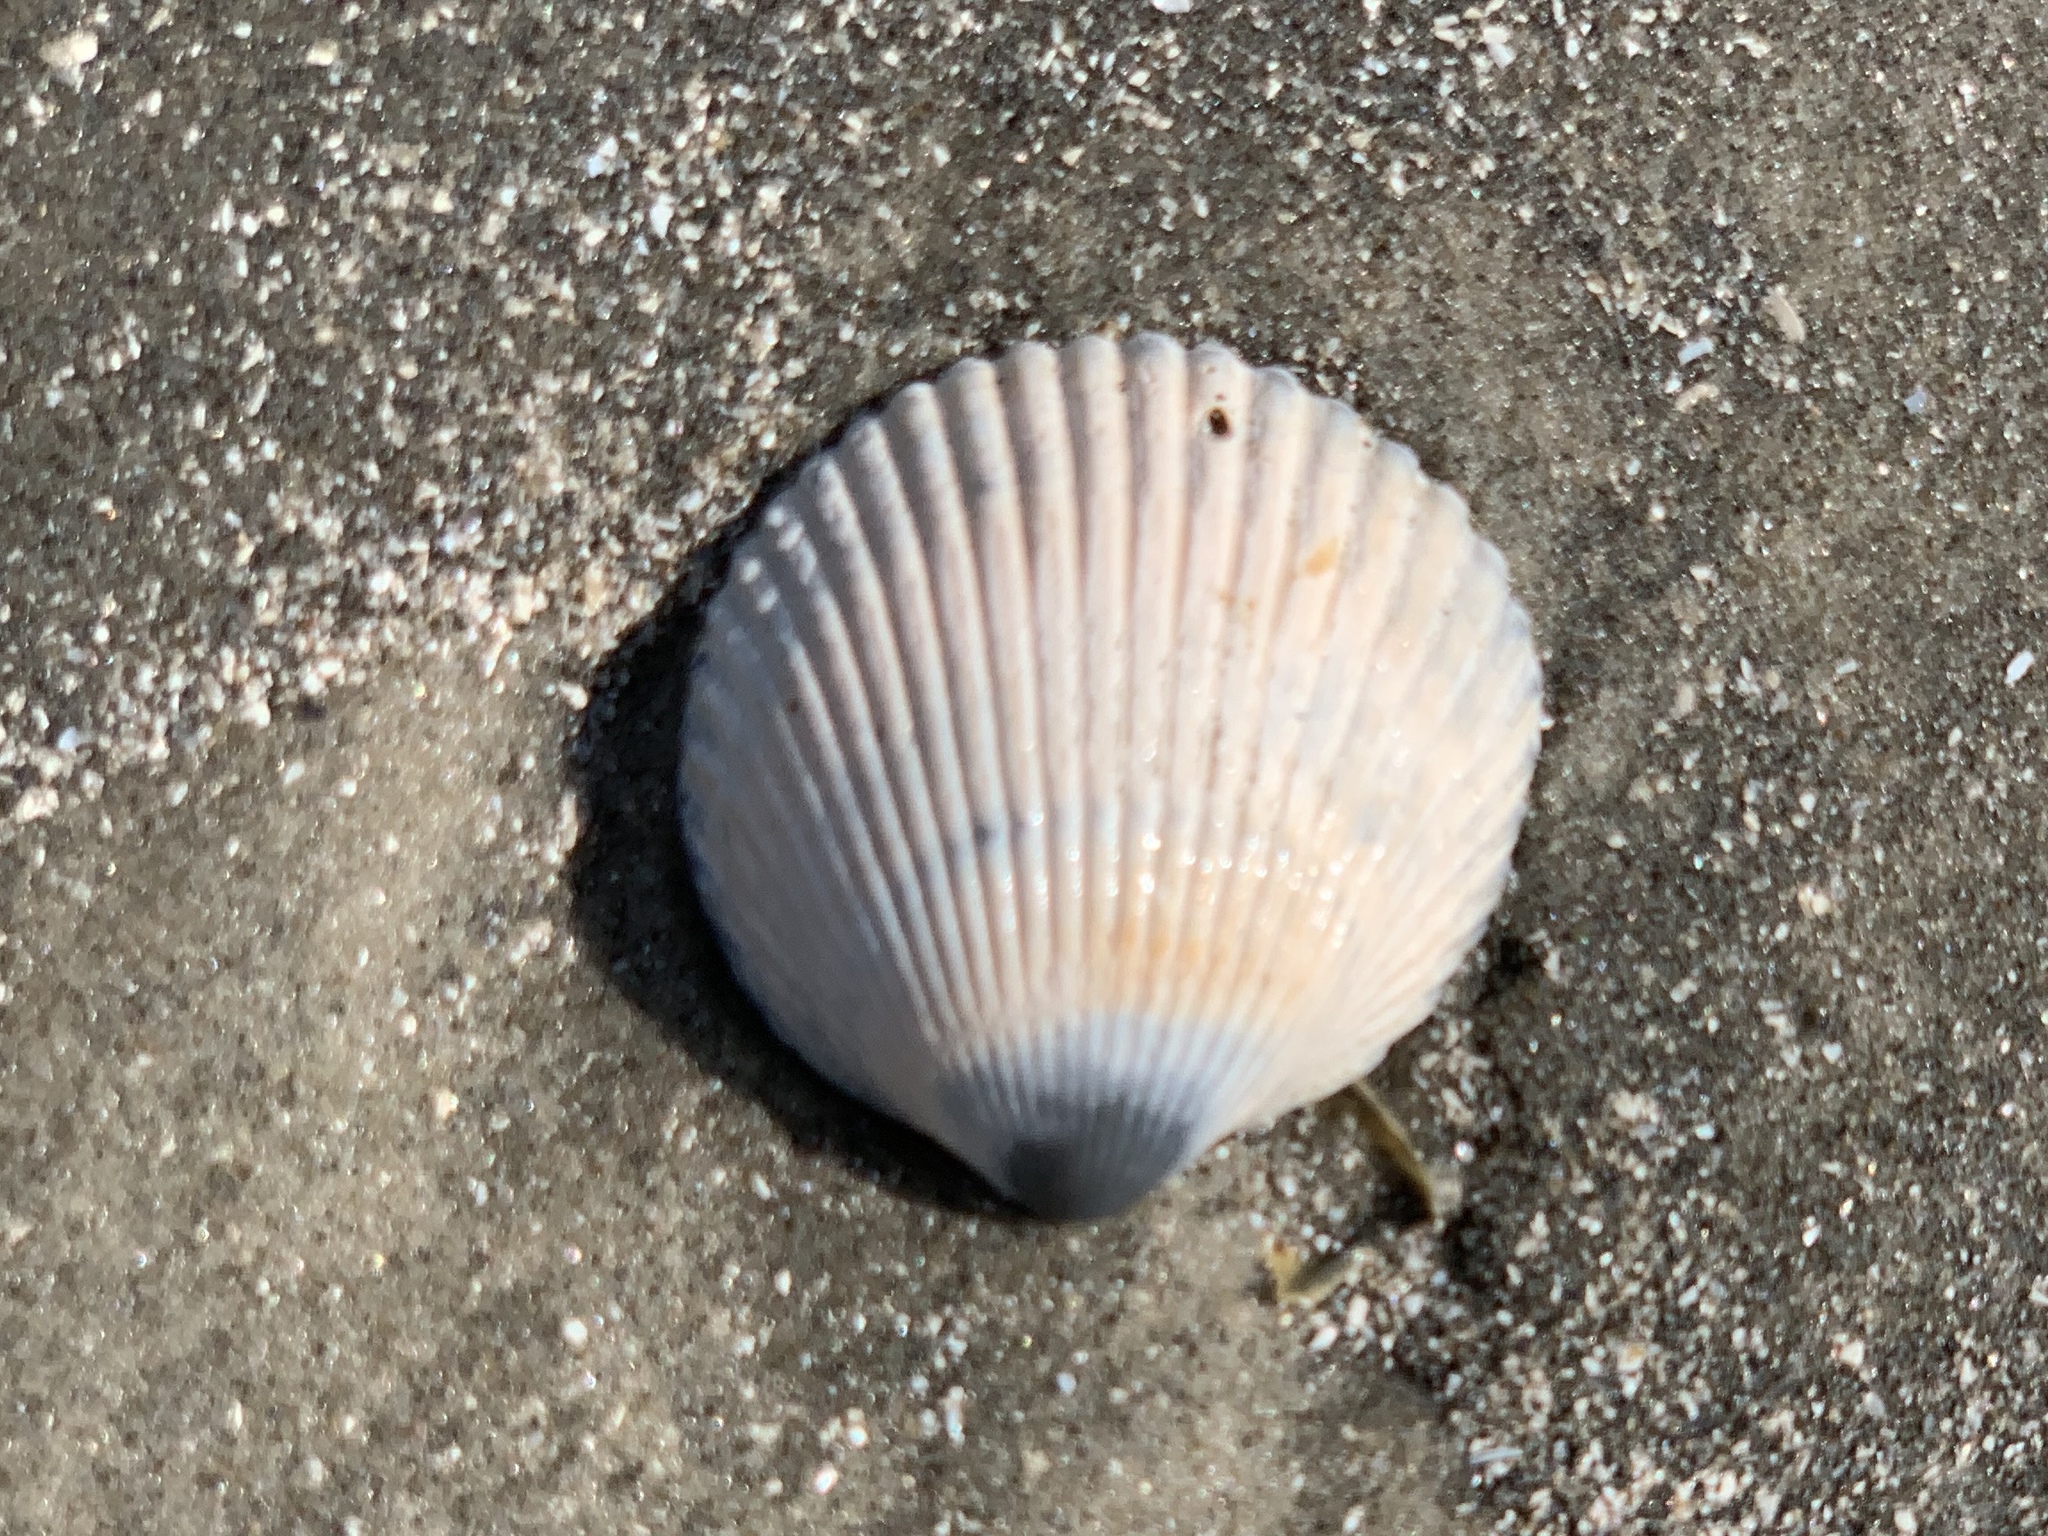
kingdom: Animalia
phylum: Mollusca
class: Bivalvia
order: Cardiida
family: Cardiidae
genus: Dinocardium
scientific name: Dinocardium robustum
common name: Atlantic giant cockle
